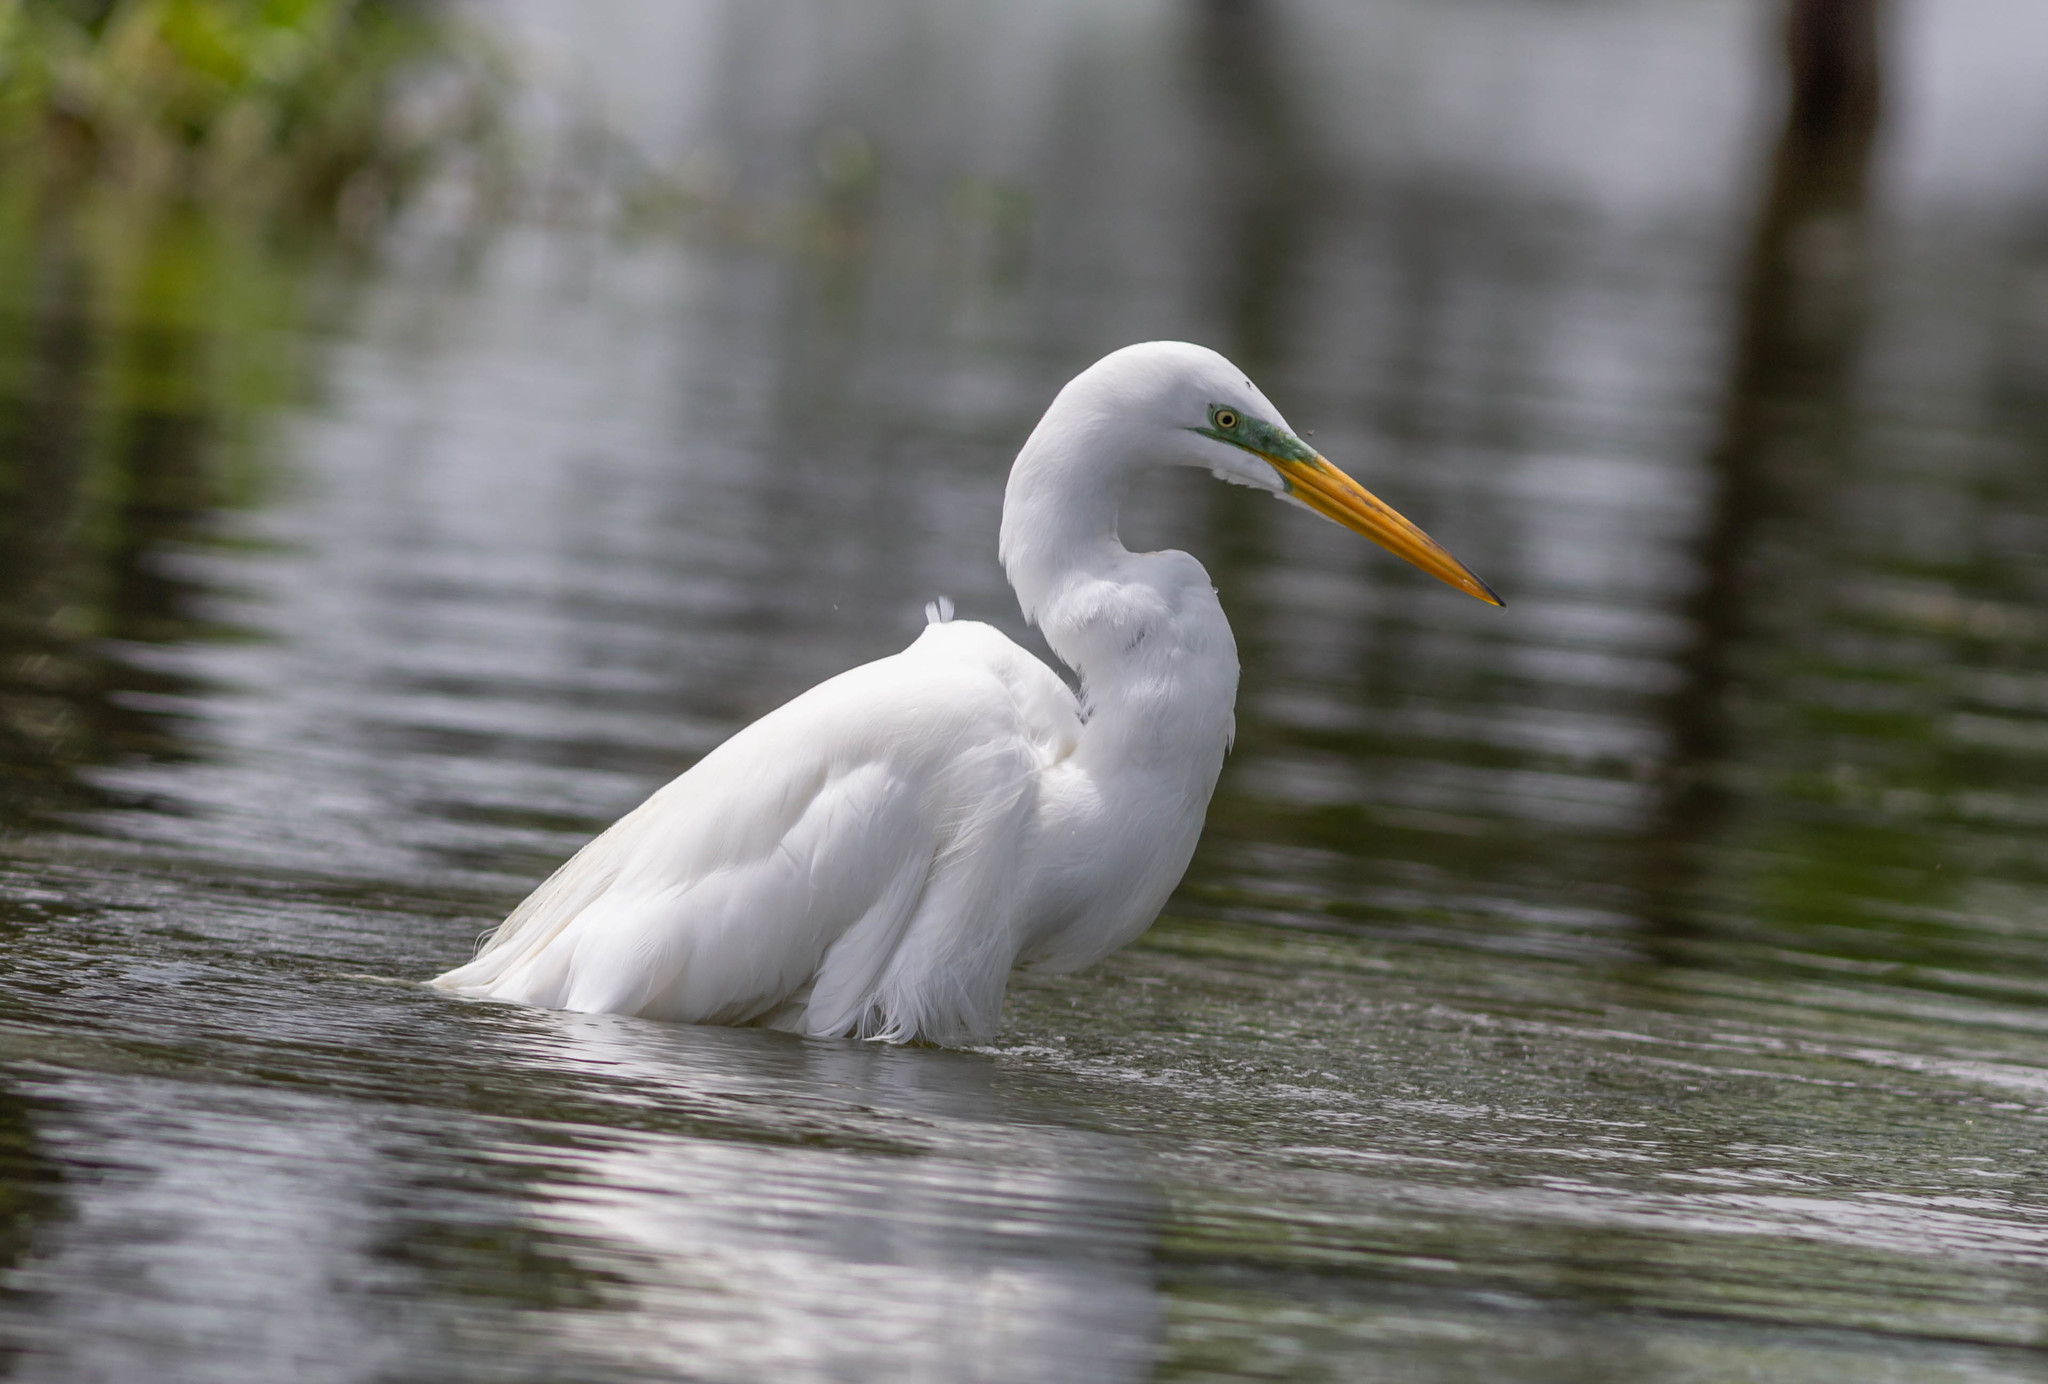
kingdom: Animalia
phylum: Chordata
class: Aves
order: Pelecaniformes
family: Ardeidae
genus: Ardea
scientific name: Ardea alba
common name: Great egret
